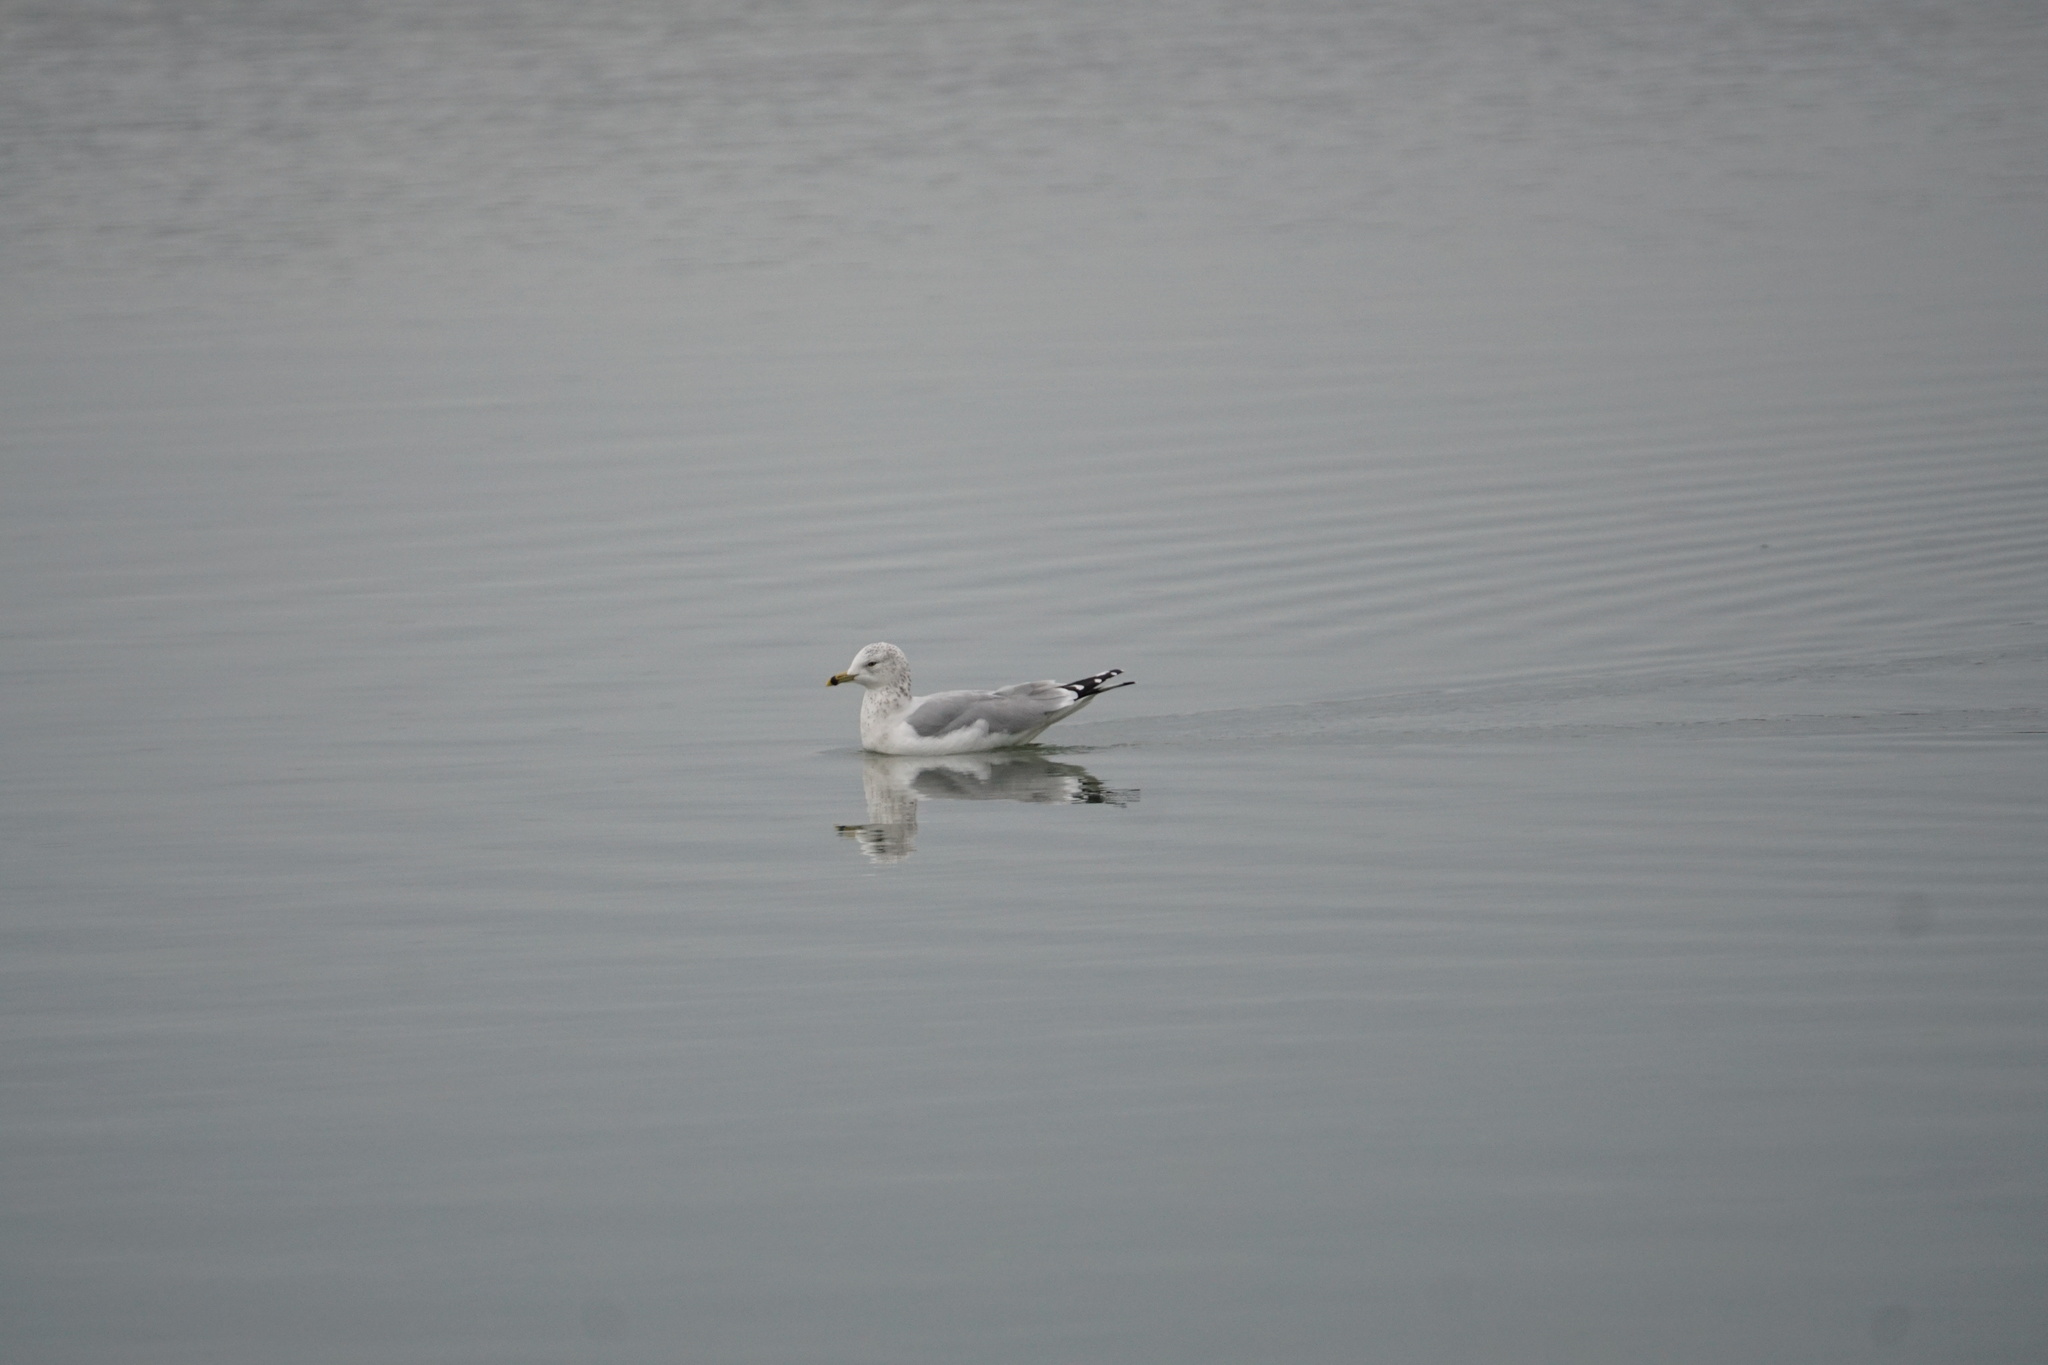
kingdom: Animalia
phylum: Chordata
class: Aves
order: Charadriiformes
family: Laridae
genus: Larus
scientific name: Larus delawarensis
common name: Ring-billed gull
